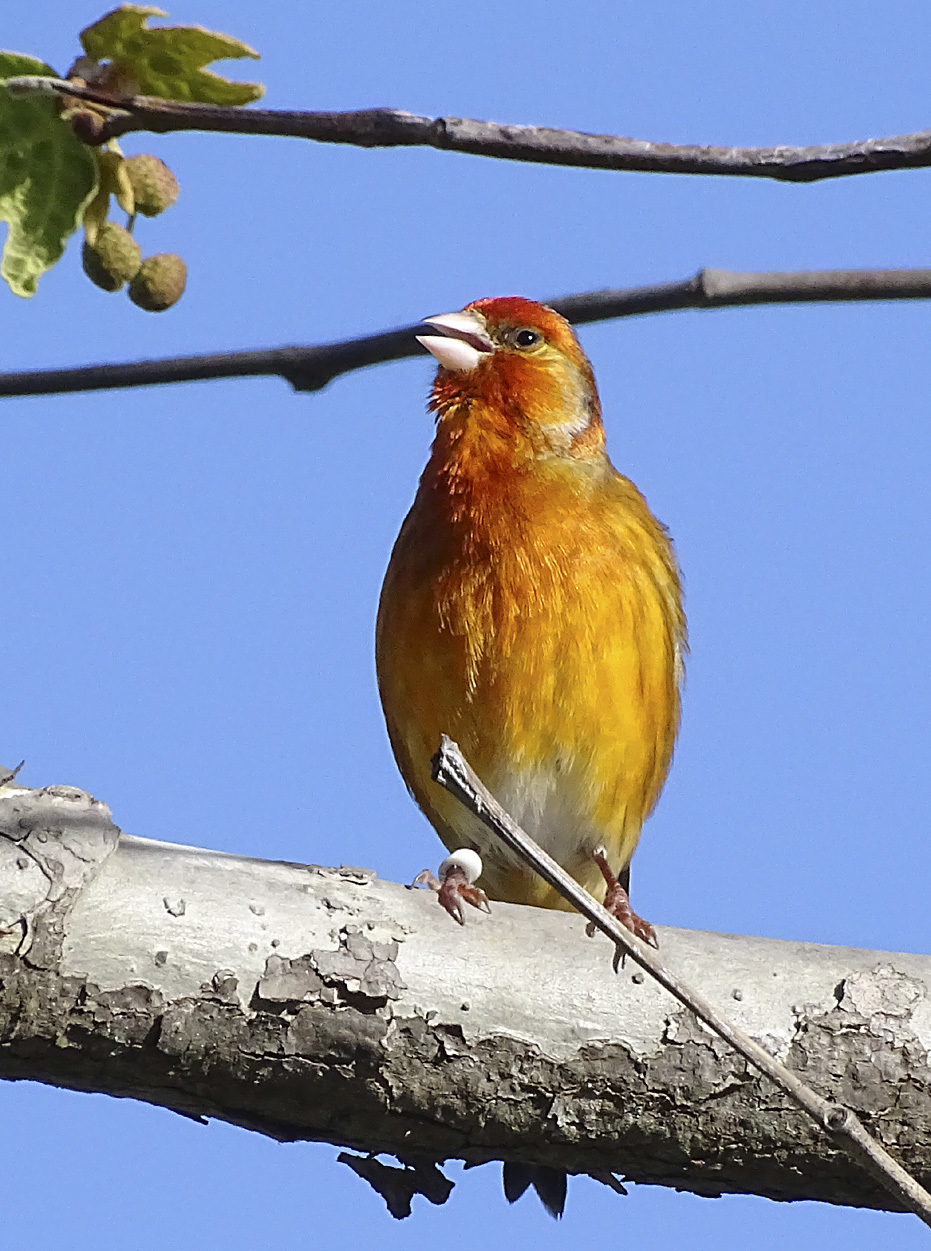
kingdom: Animalia
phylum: Chordata
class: Aves
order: Passeriformes
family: Fringillidae
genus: Serinus
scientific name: Serinus canaria
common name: Atlantic canary
